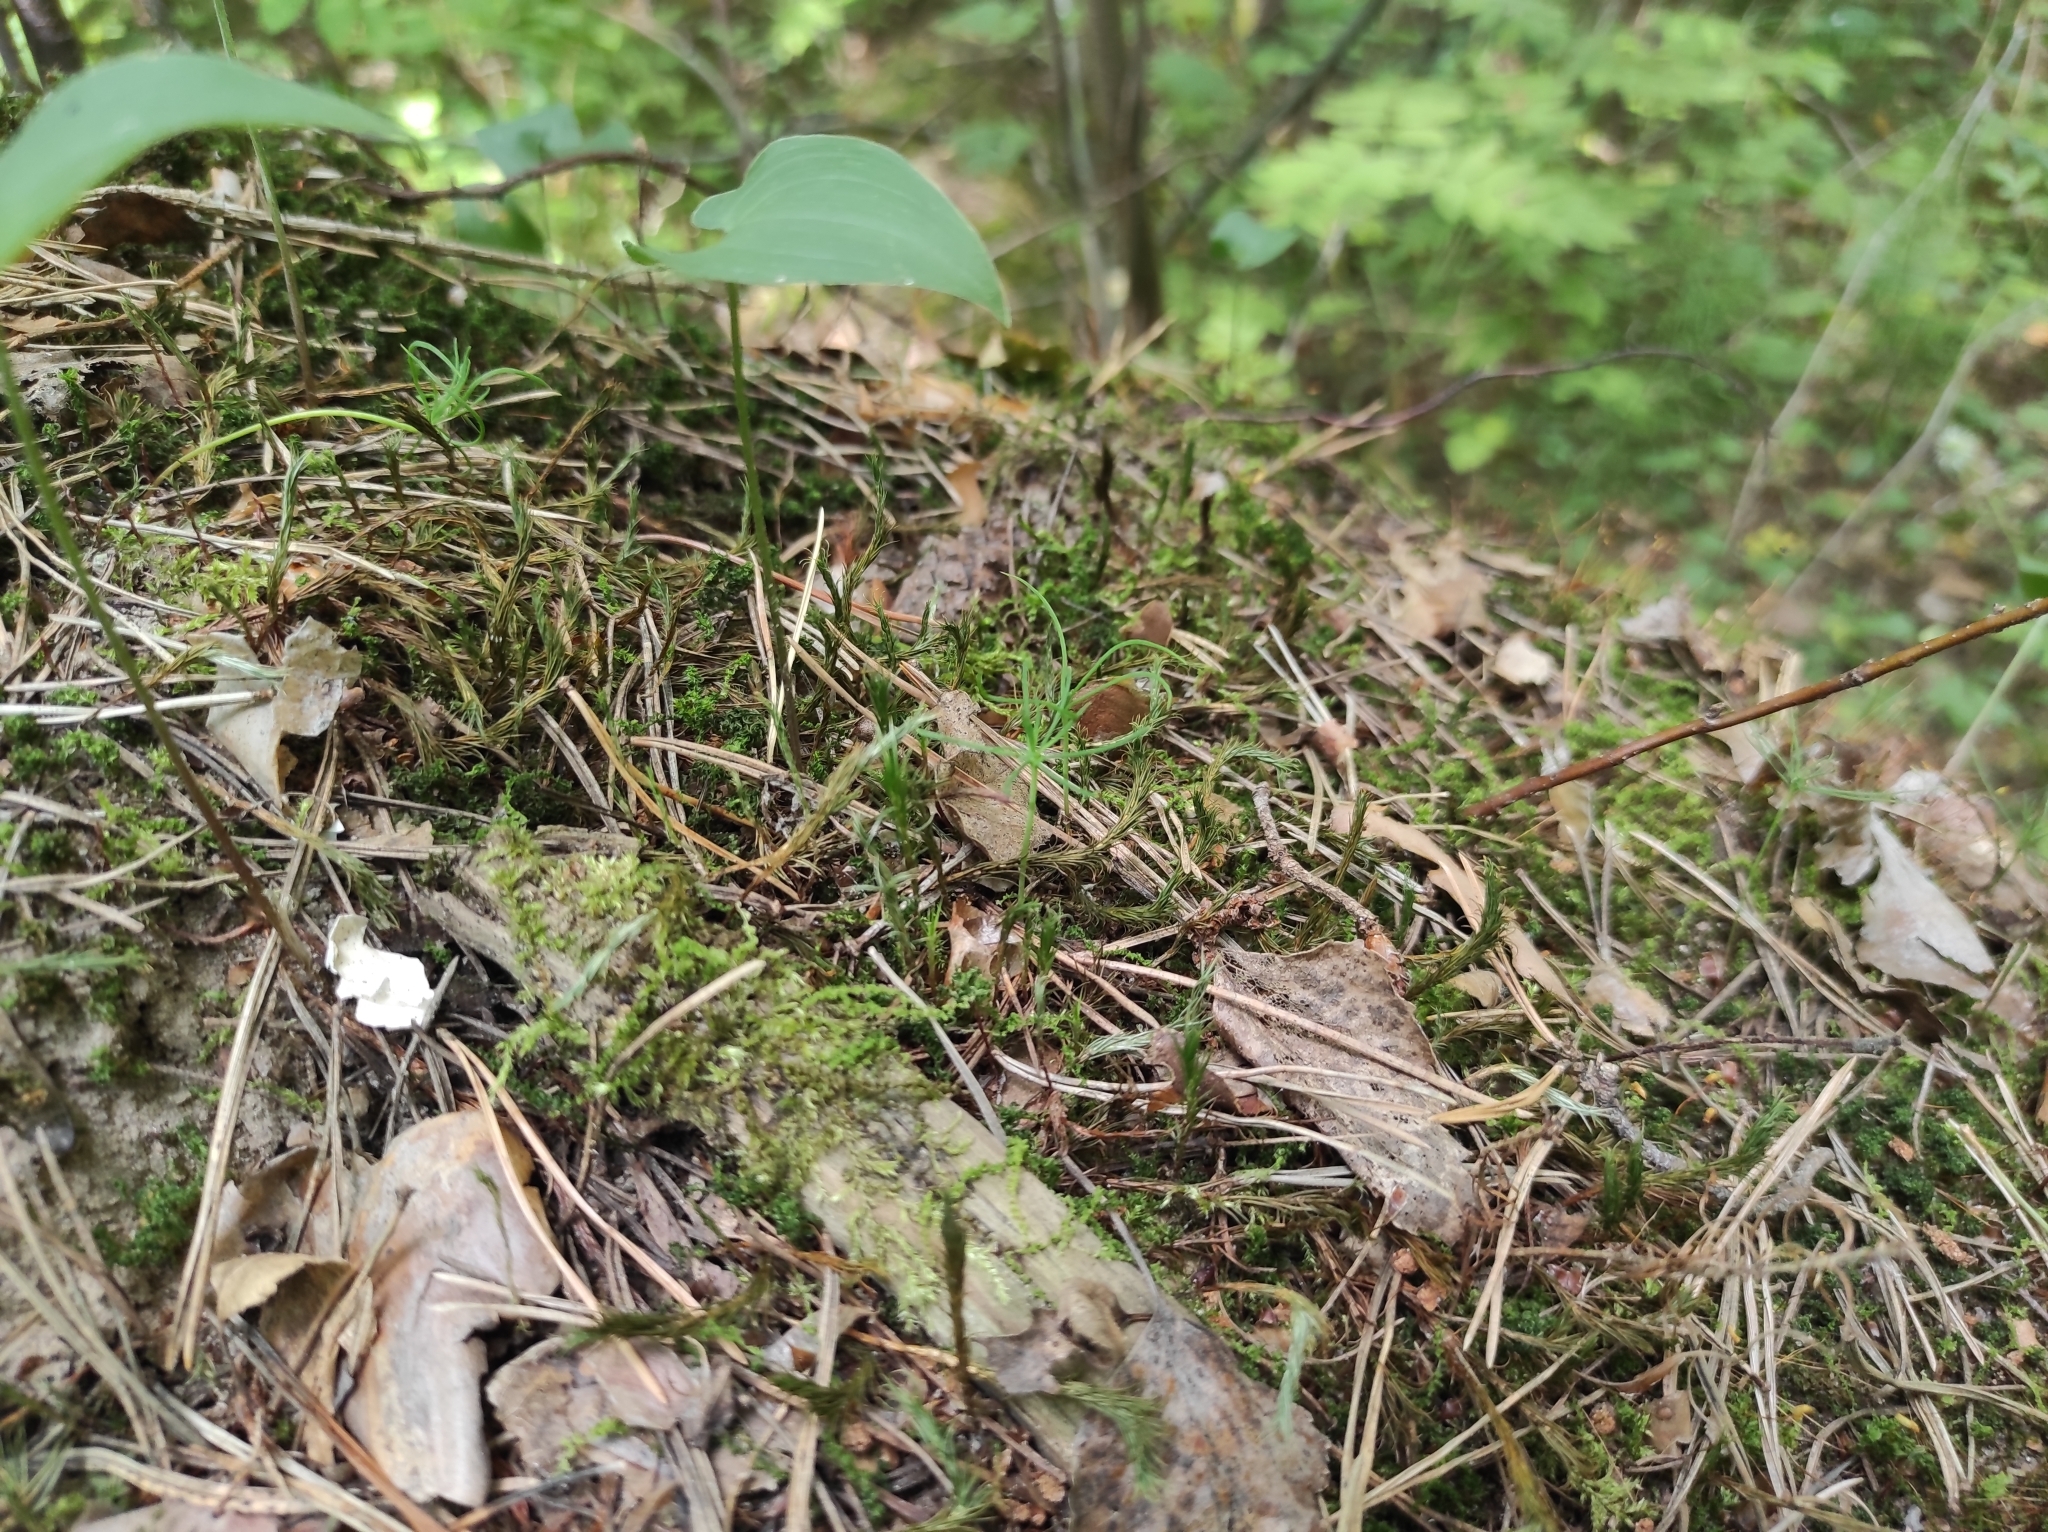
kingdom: Plantae
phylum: Tracheophyta
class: Pinopsida
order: Pinales
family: Pinaceae
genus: Pinus
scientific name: Pinus sylvestris
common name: Scots pine
